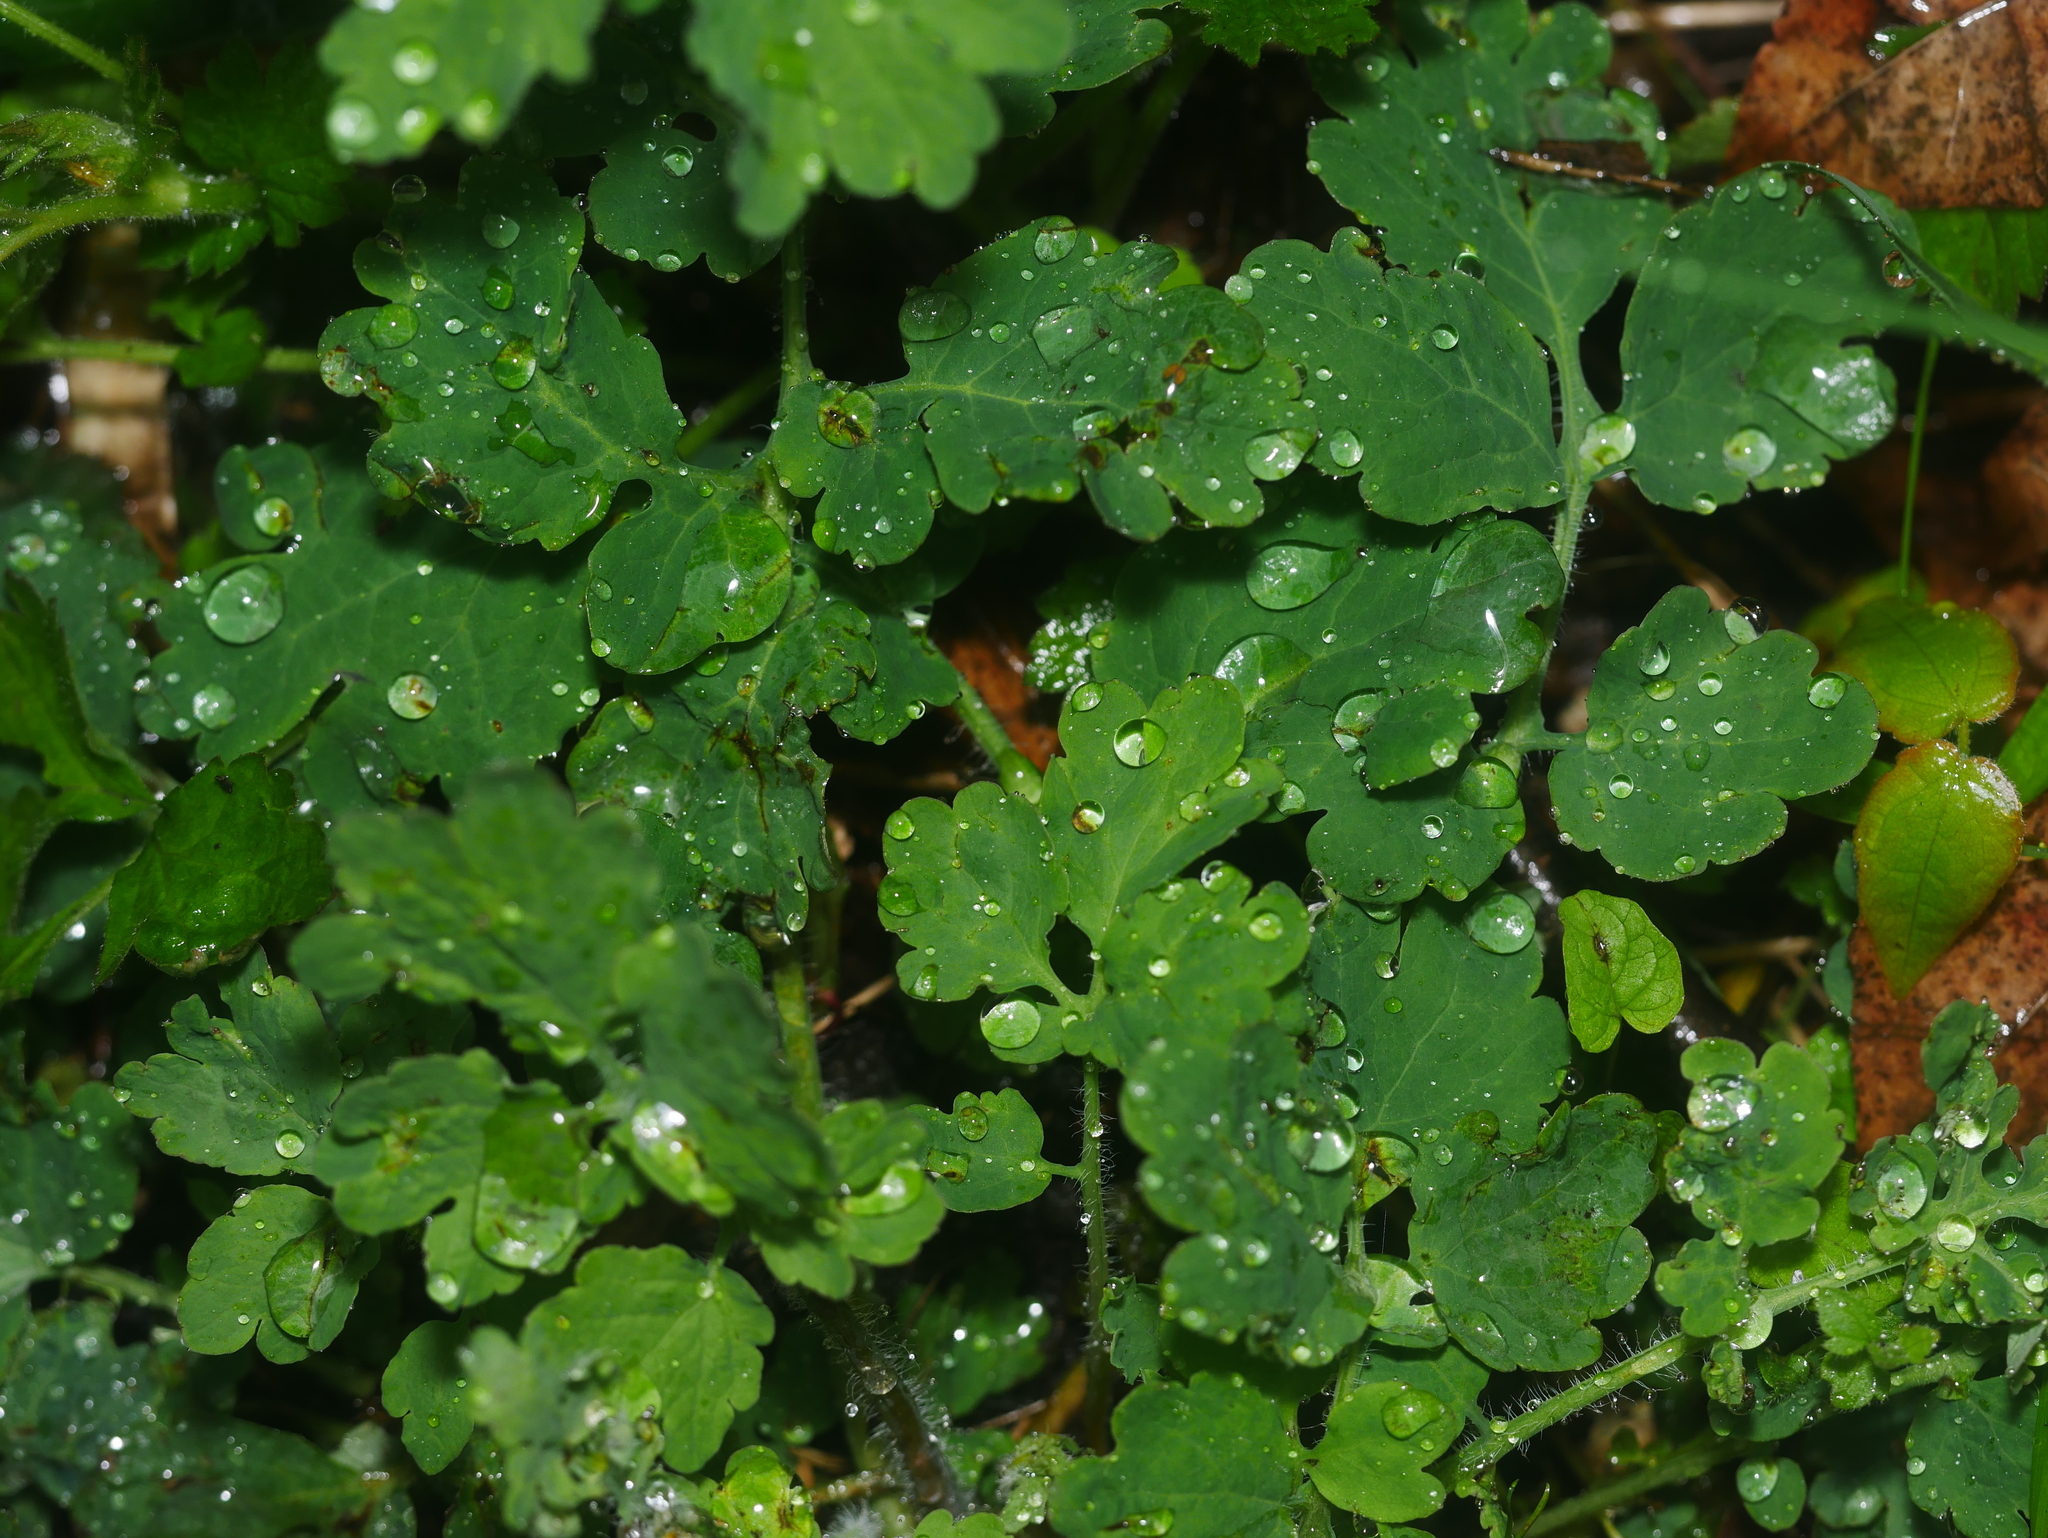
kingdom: Plantae
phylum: Tracheophyta
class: Magnoliopsida
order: Ranunculales
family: Papaveraceae
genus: Chelidonium
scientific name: Chelidonium majus
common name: Greater celandine
